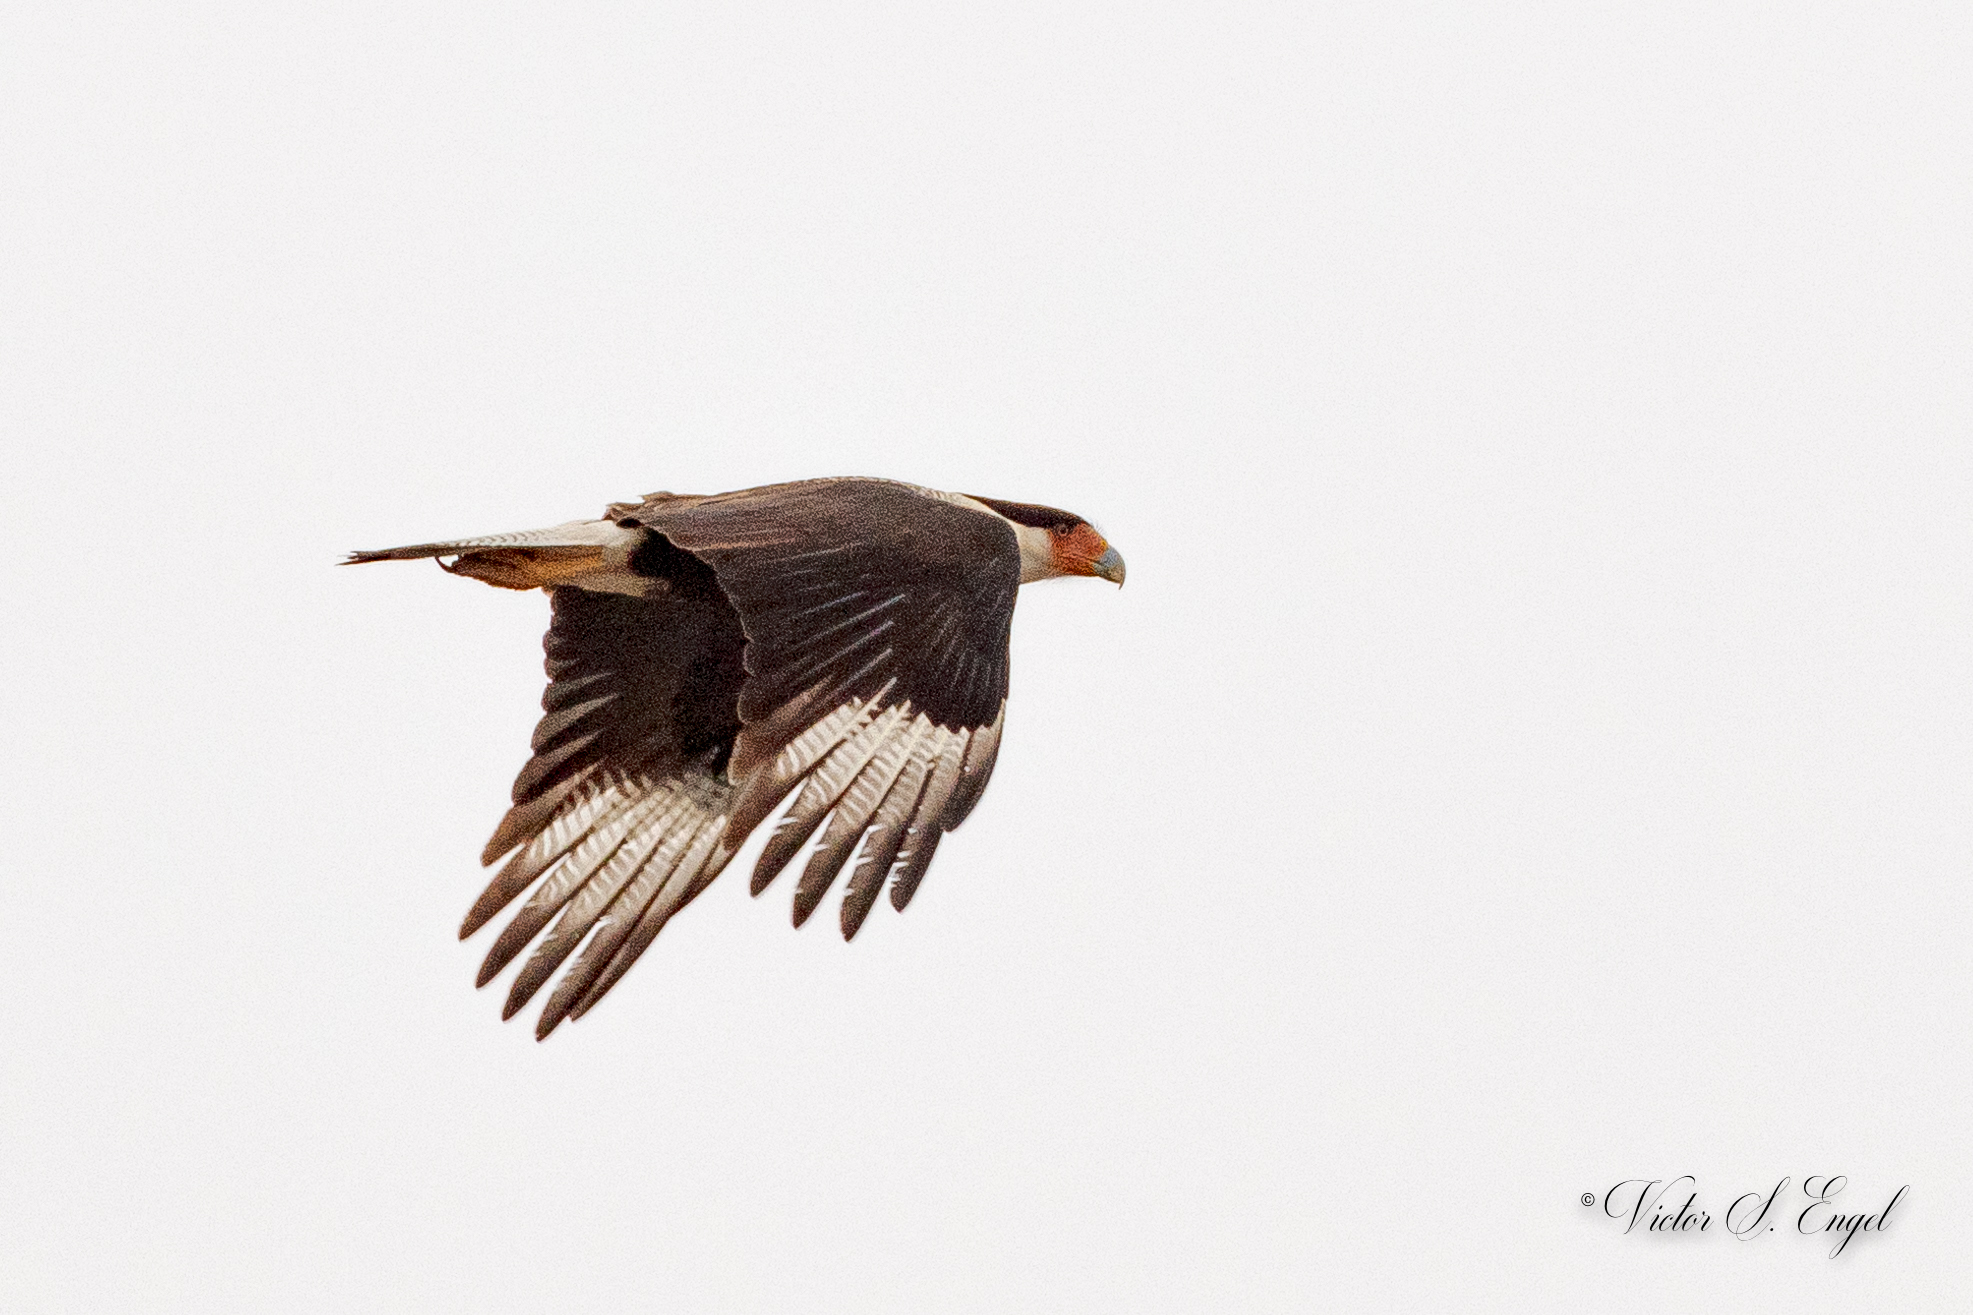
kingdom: Animalia
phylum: Chordata
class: Aves
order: Falconiformes
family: Falconidae
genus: Caracara
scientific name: Caracara plancus
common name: Southern caracara
